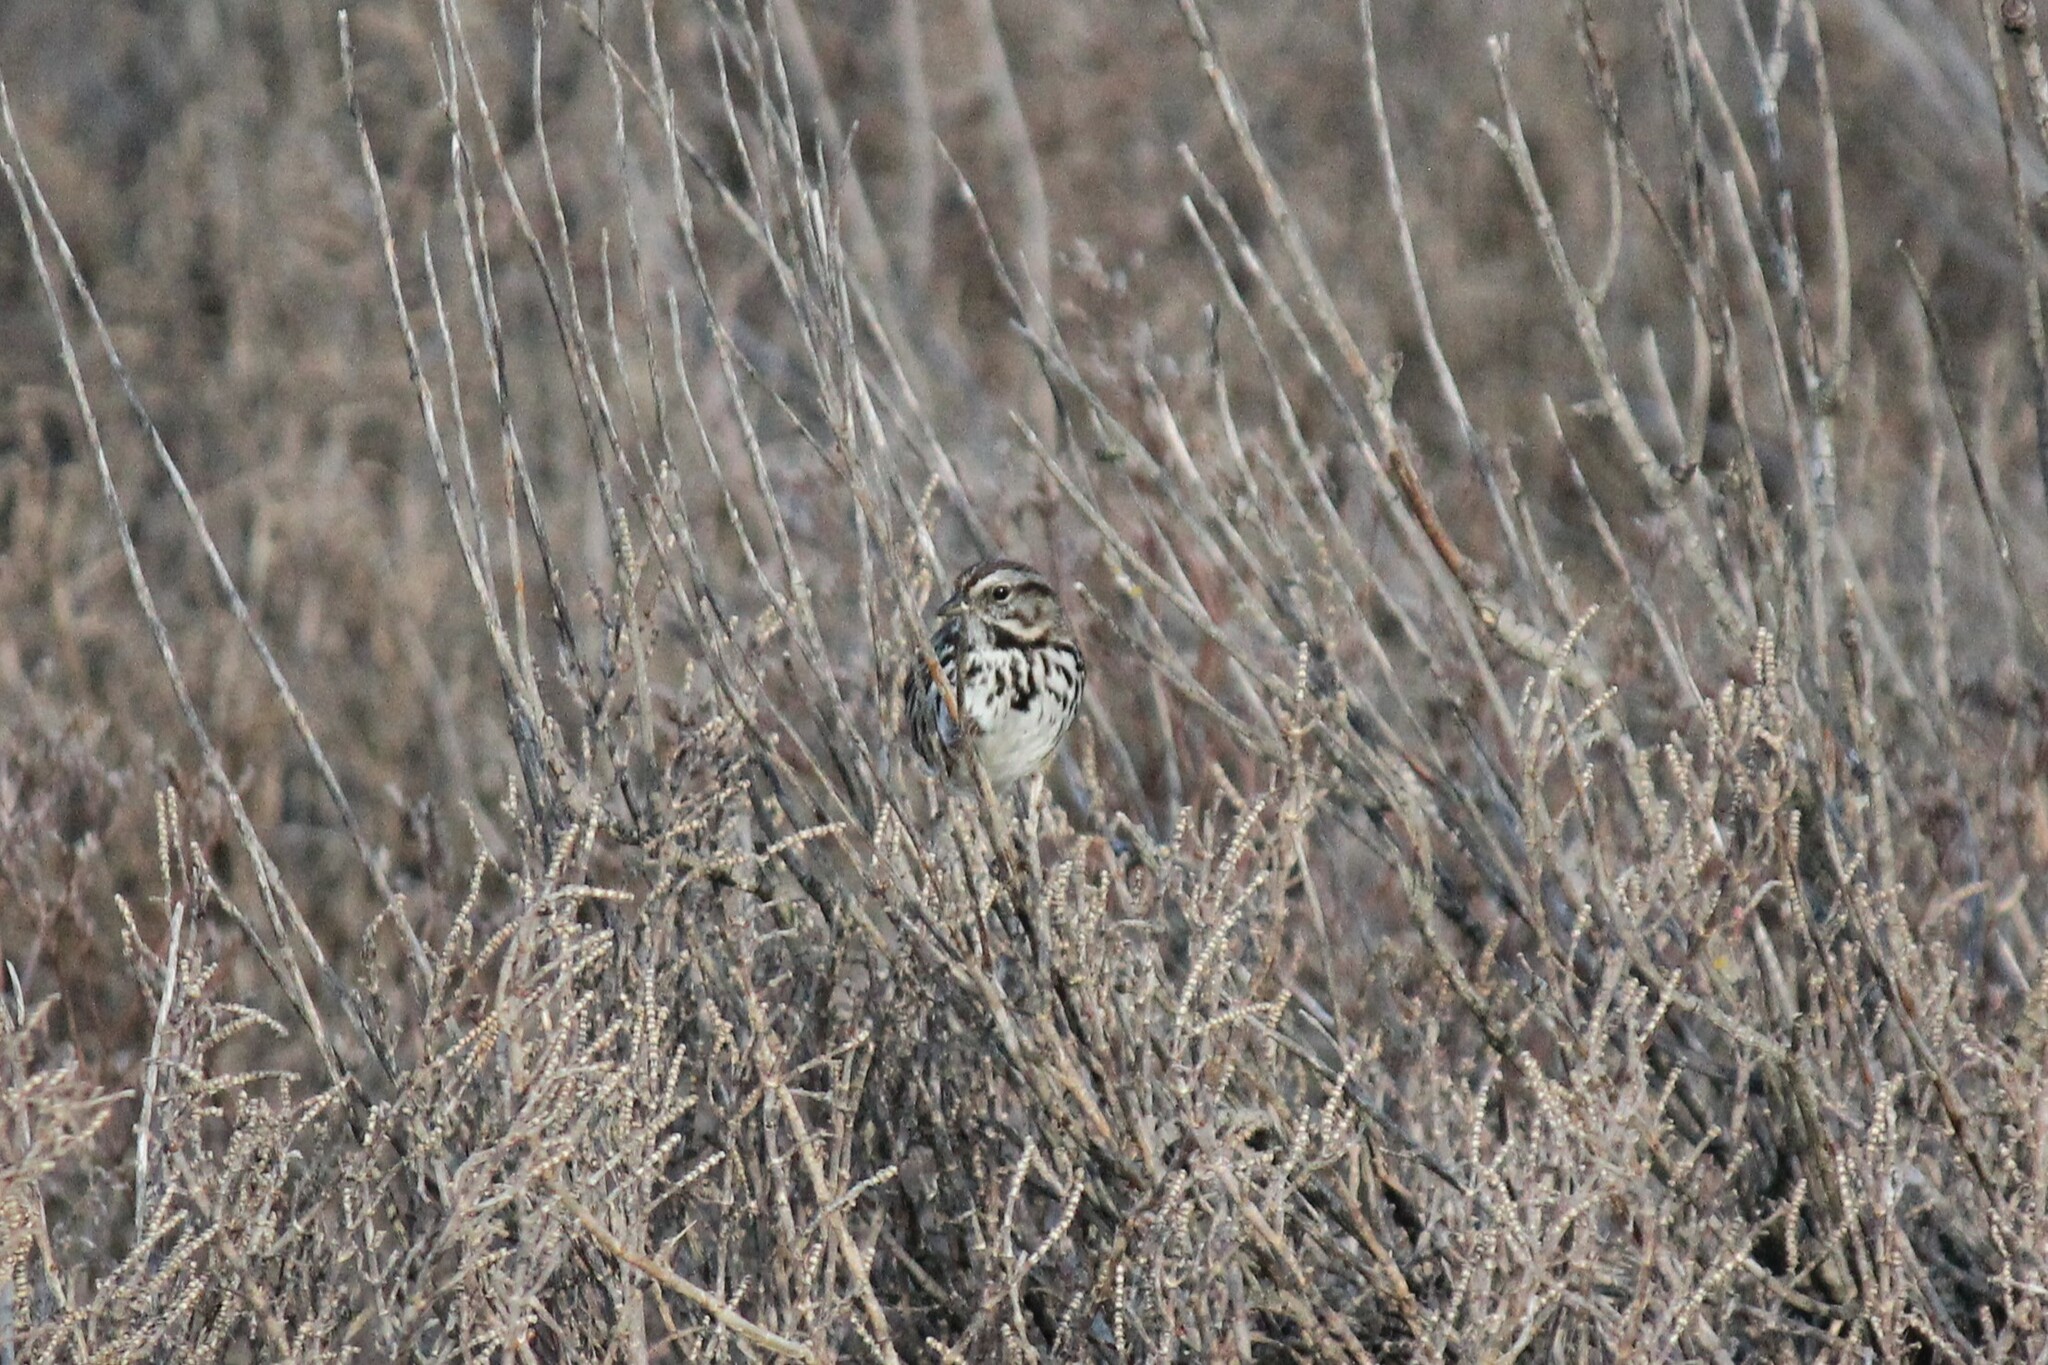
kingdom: Animalia
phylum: Chordata
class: Aves
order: Passeriformes
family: Passerellidae
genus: Melospiza
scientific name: Melospiza melodia
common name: Song sparrow
